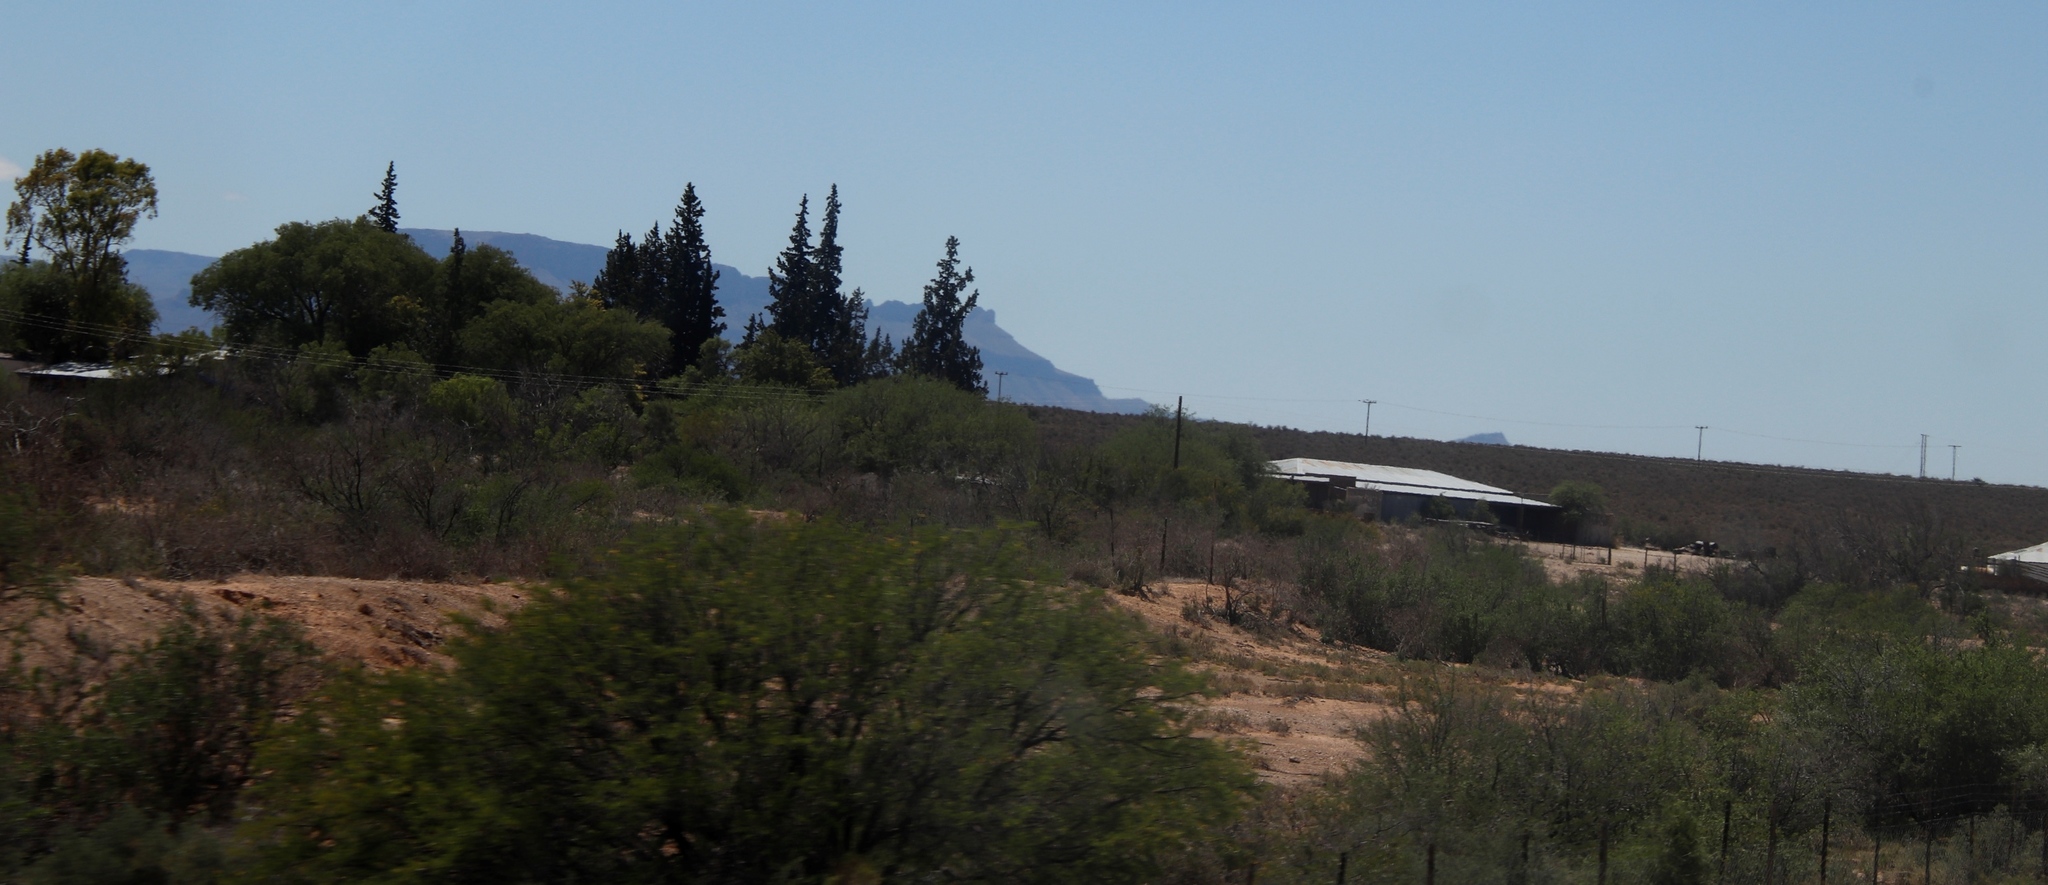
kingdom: Plantae
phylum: Tracheophyta
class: Magnoliopsida
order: Fabales
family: Fabaceae
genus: Prosopis
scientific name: Prosopis glandulosa
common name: Honey mesquite
